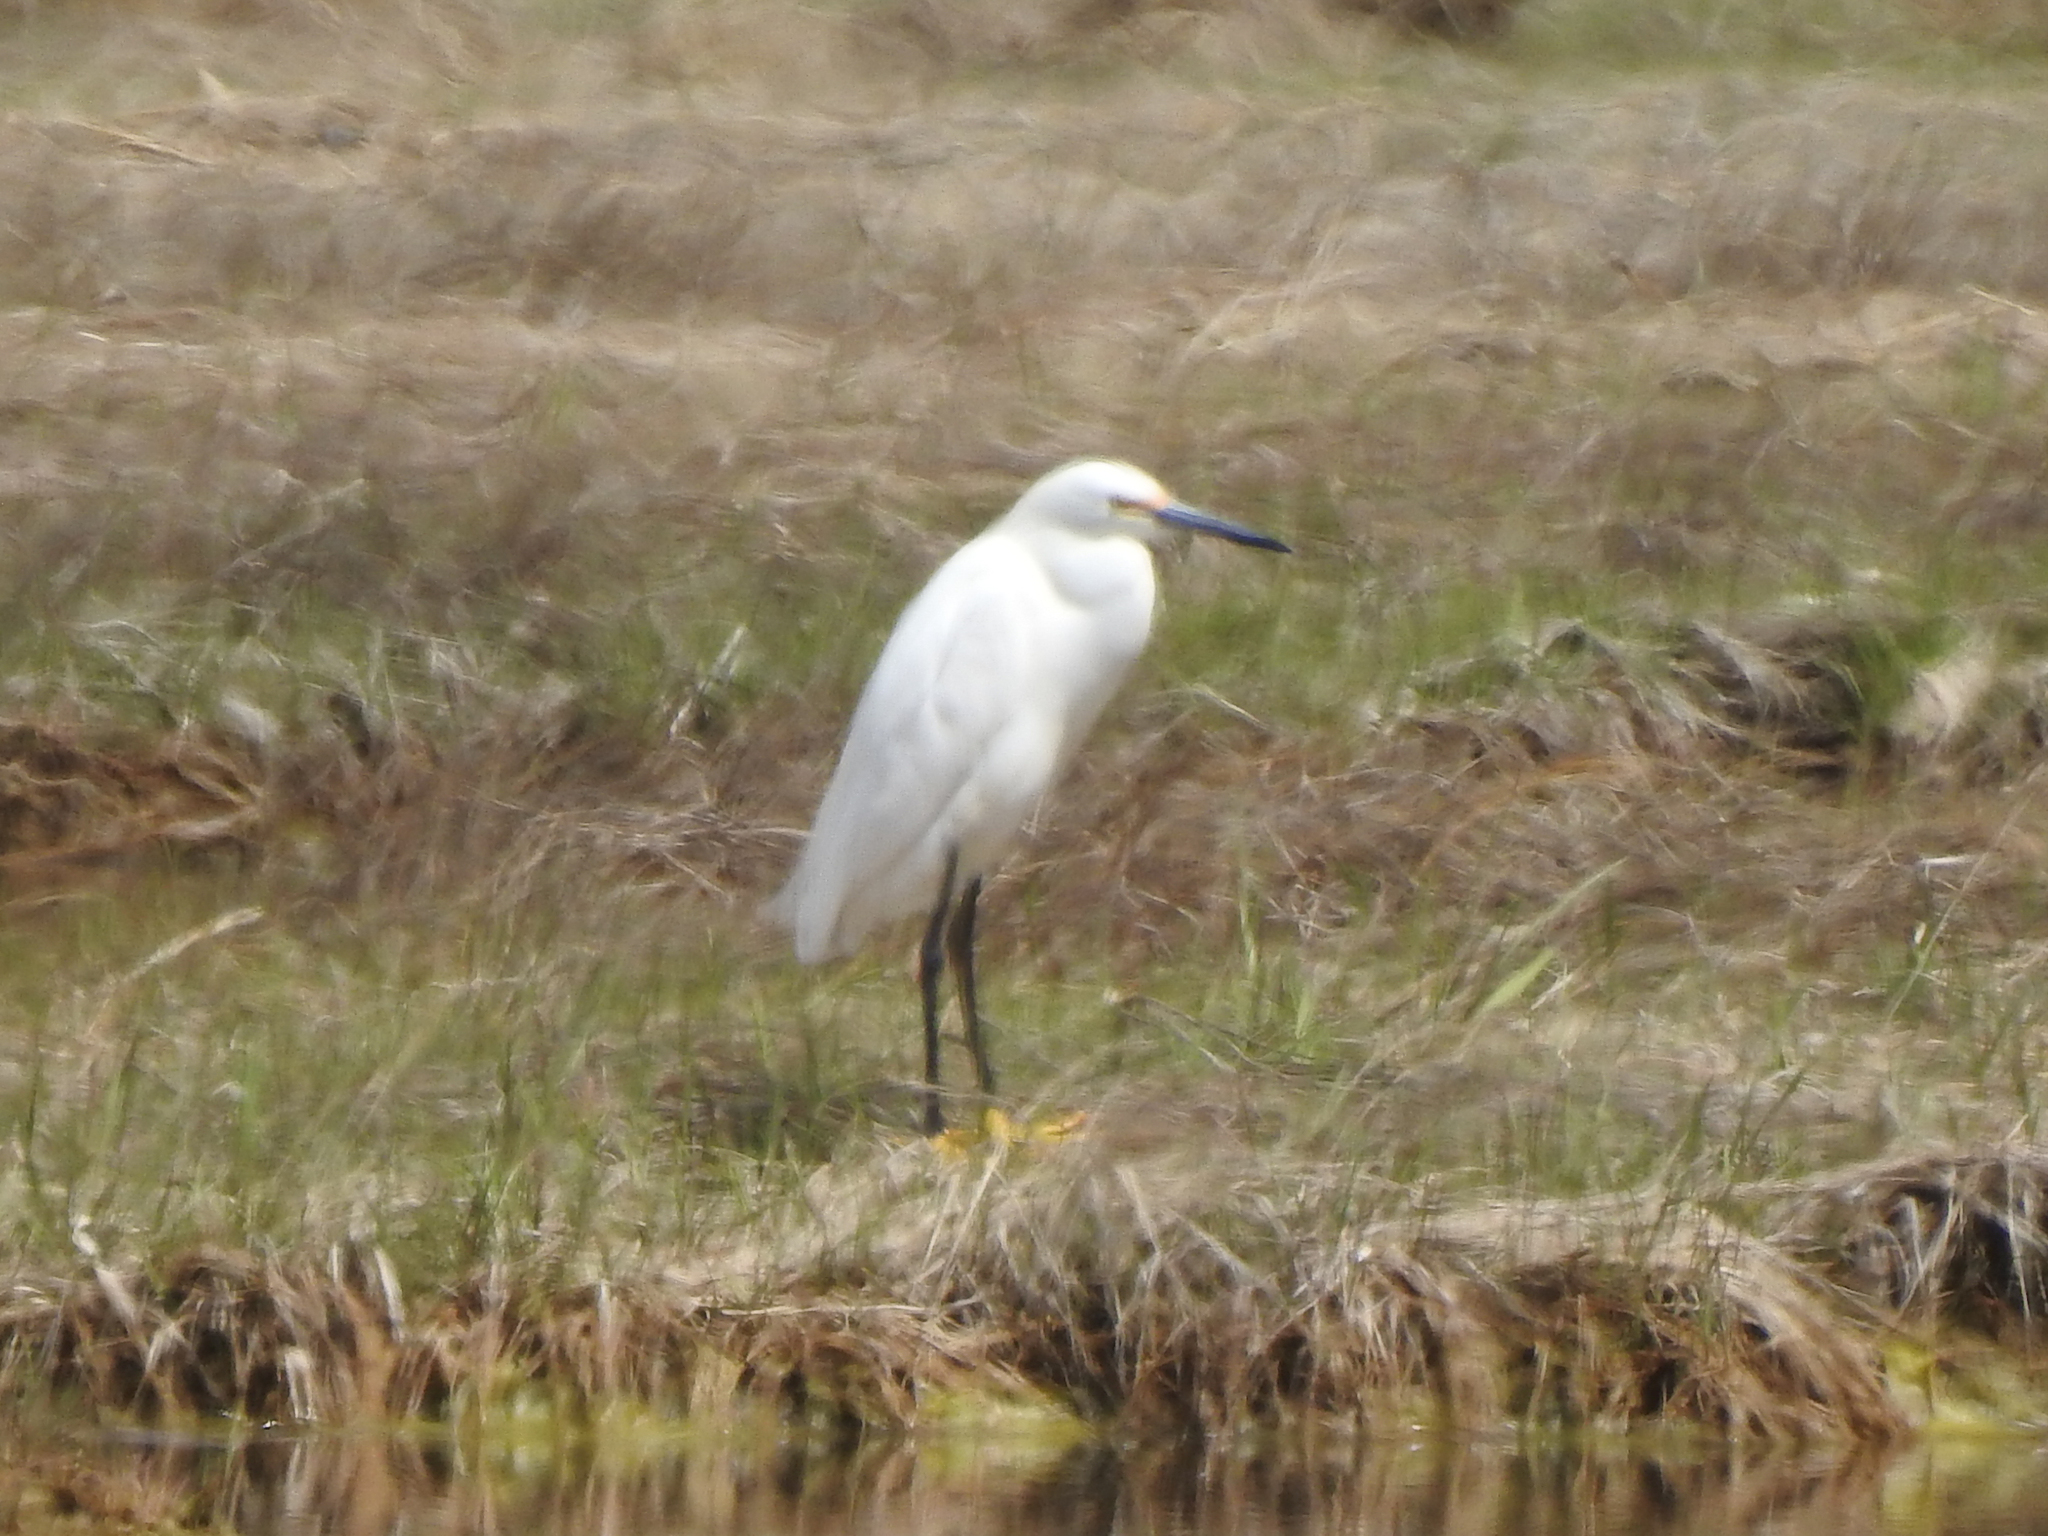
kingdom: Animalia
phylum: Chordata
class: Aves
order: Pelecaniformes
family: Ardeidae
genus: Egretta
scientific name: Egretta thula
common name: Snowy egret
